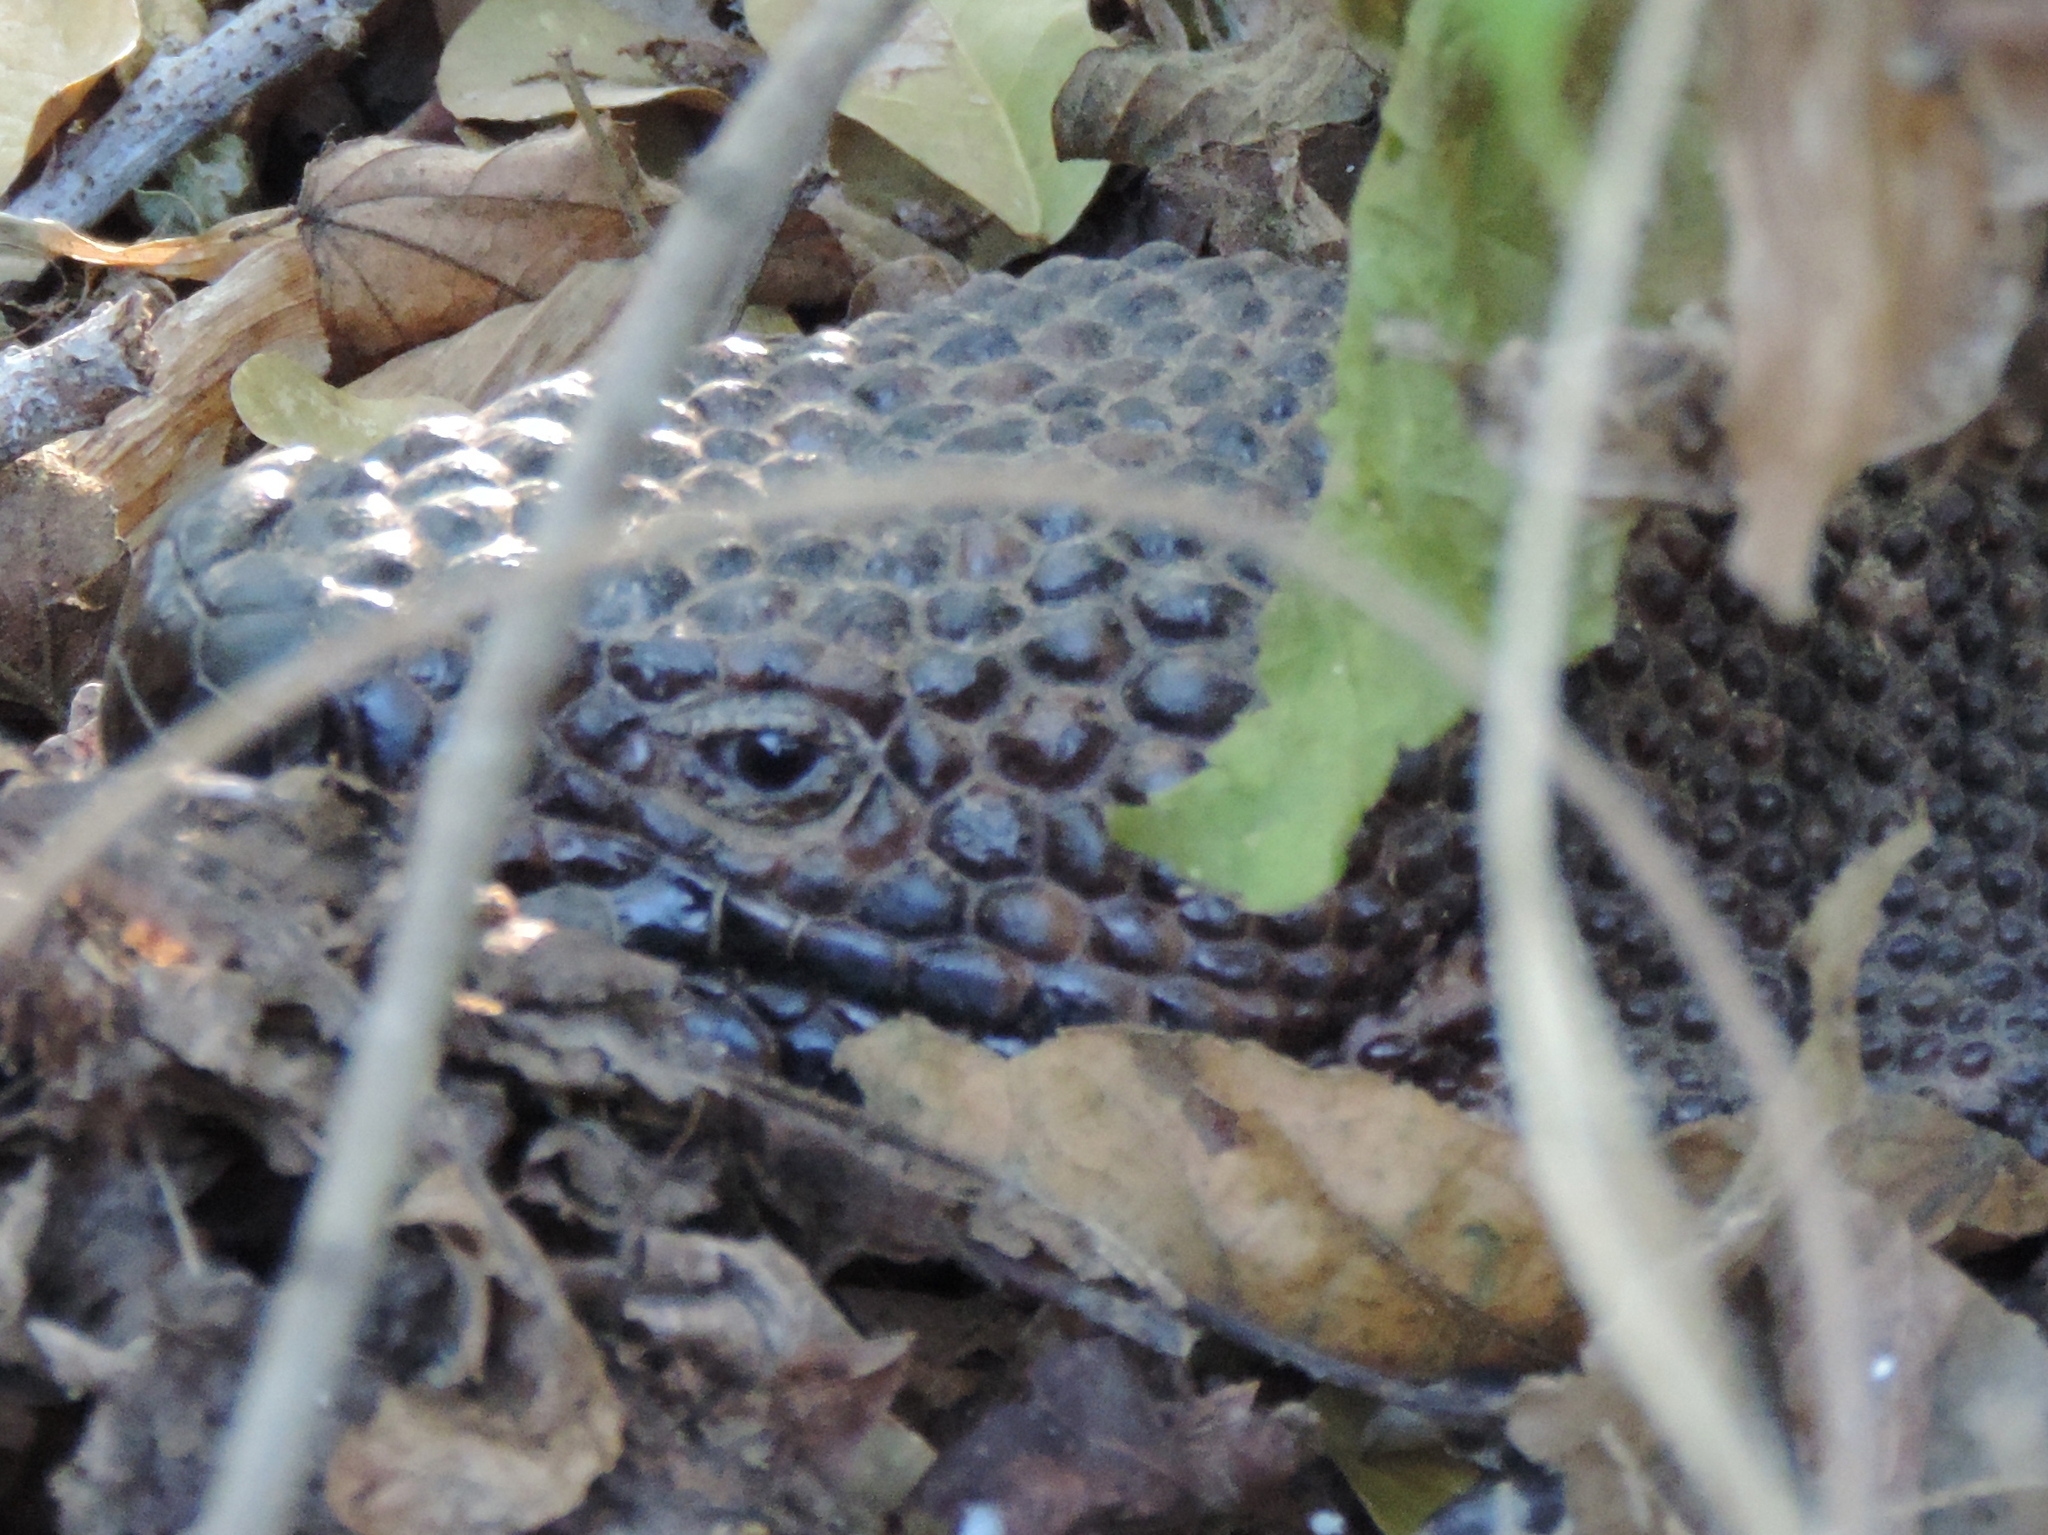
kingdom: Animalia
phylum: Chordata
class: Squamata
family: Helodermatidae
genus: Heloderma
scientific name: Heloderma horridum
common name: Mexican beaded lizard
